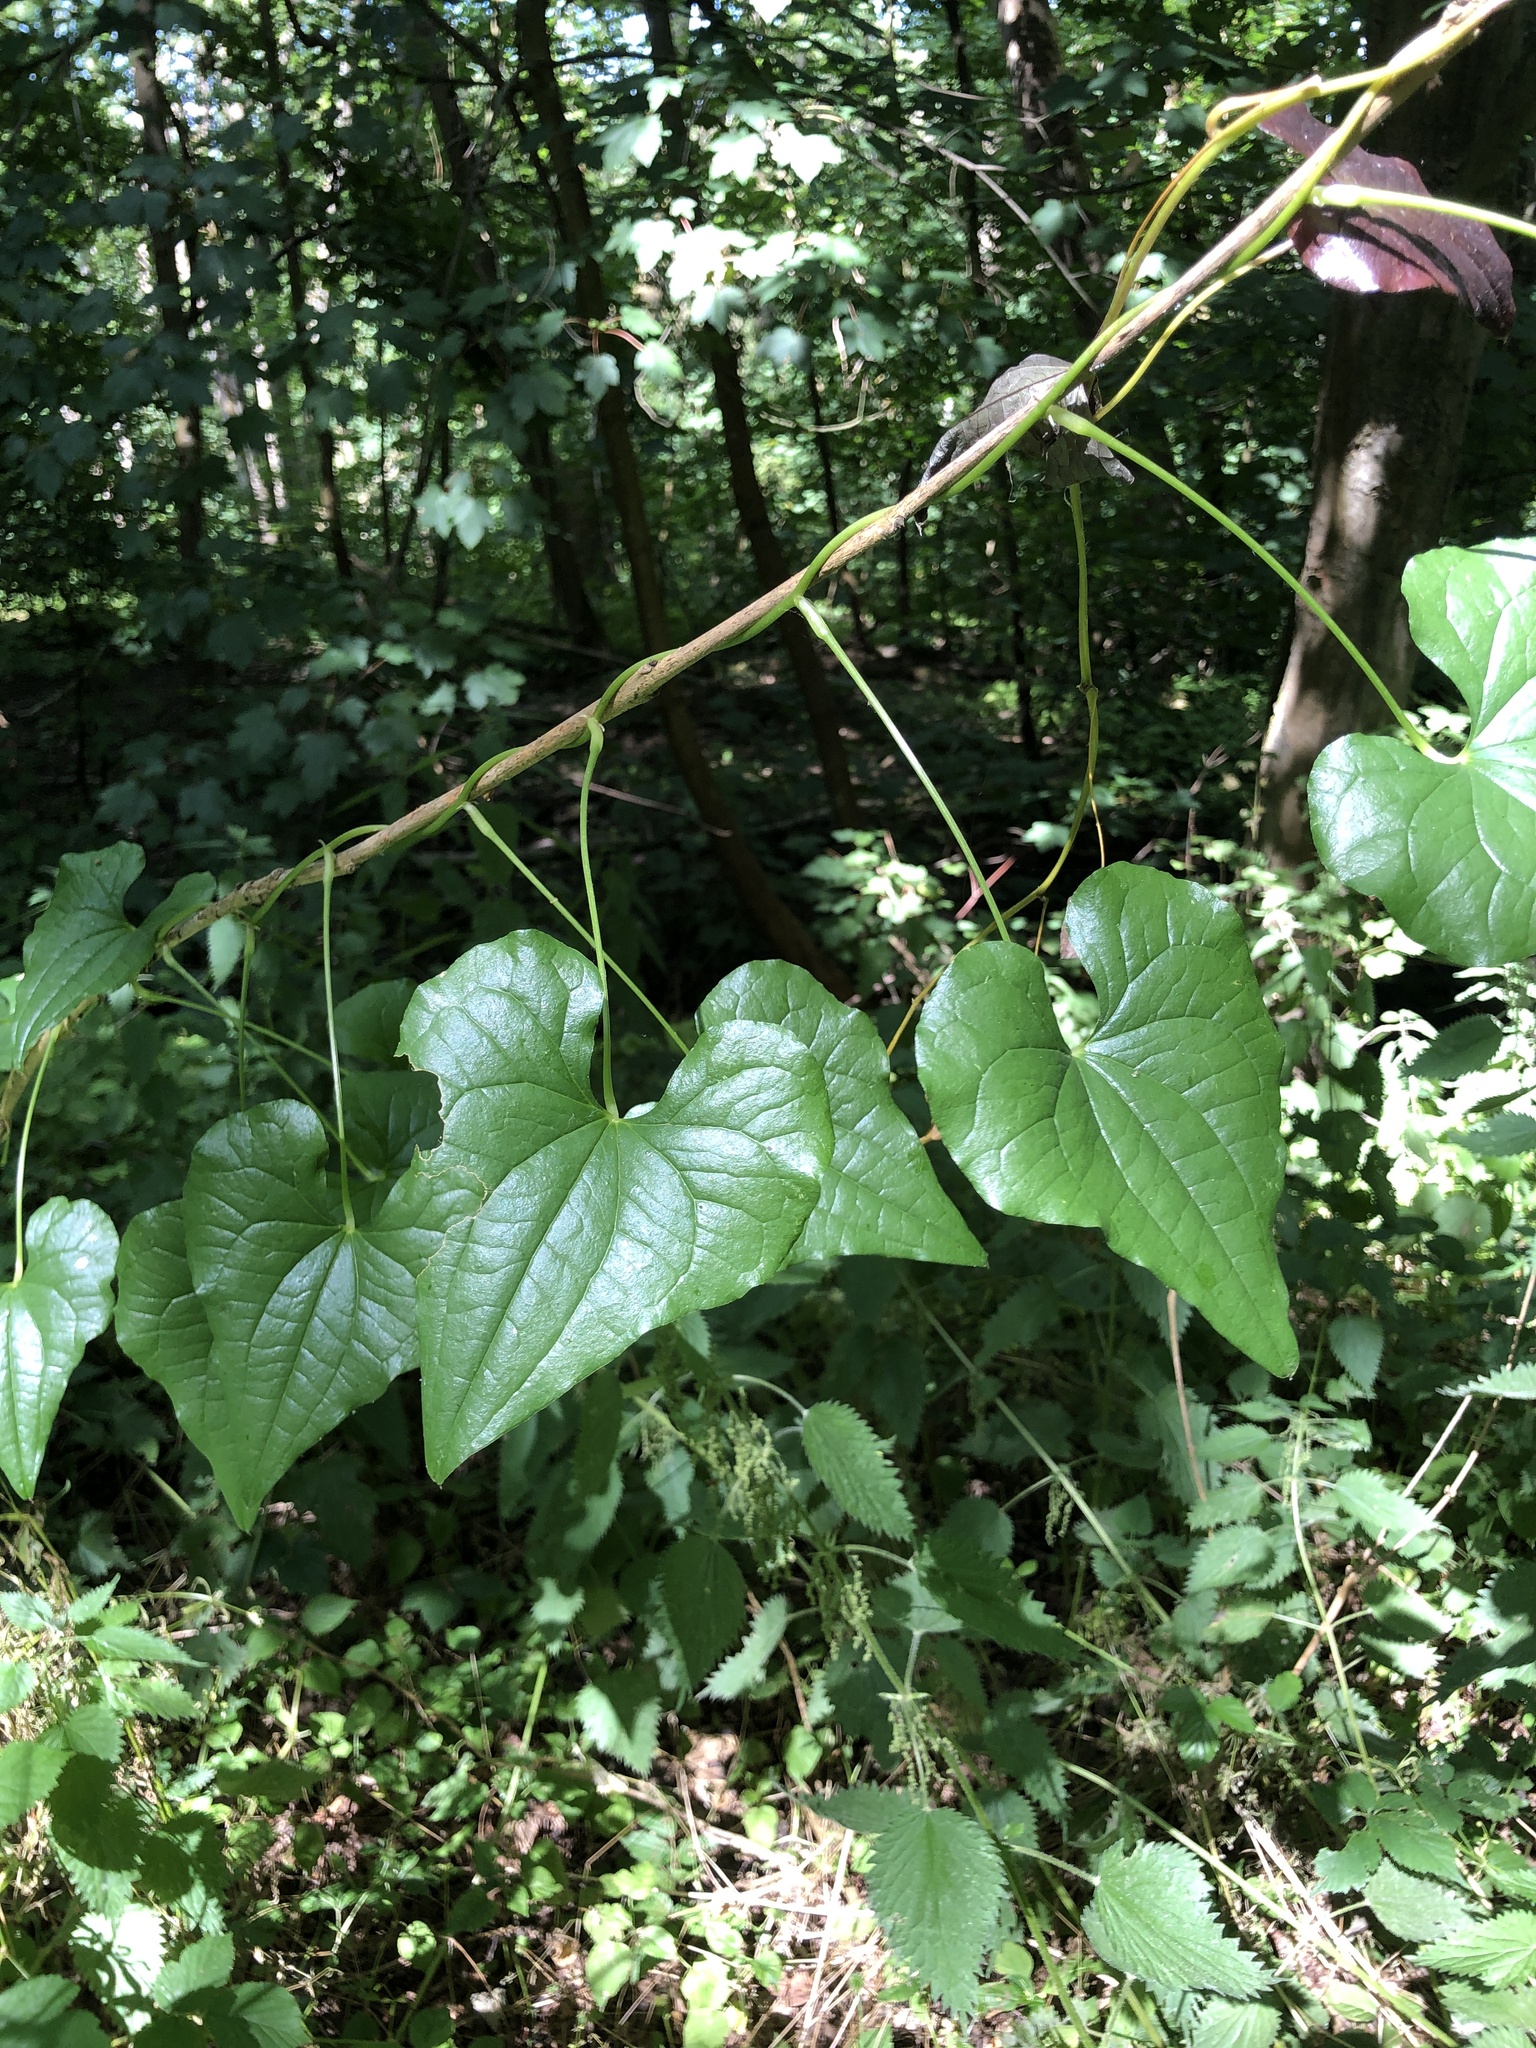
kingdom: Plantae
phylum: Tracheophyta
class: Liliopsida
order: Dioscoreales
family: Dioscoreaceae
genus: Dioscorea
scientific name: Dioscorea communis
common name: Black-bindweed
